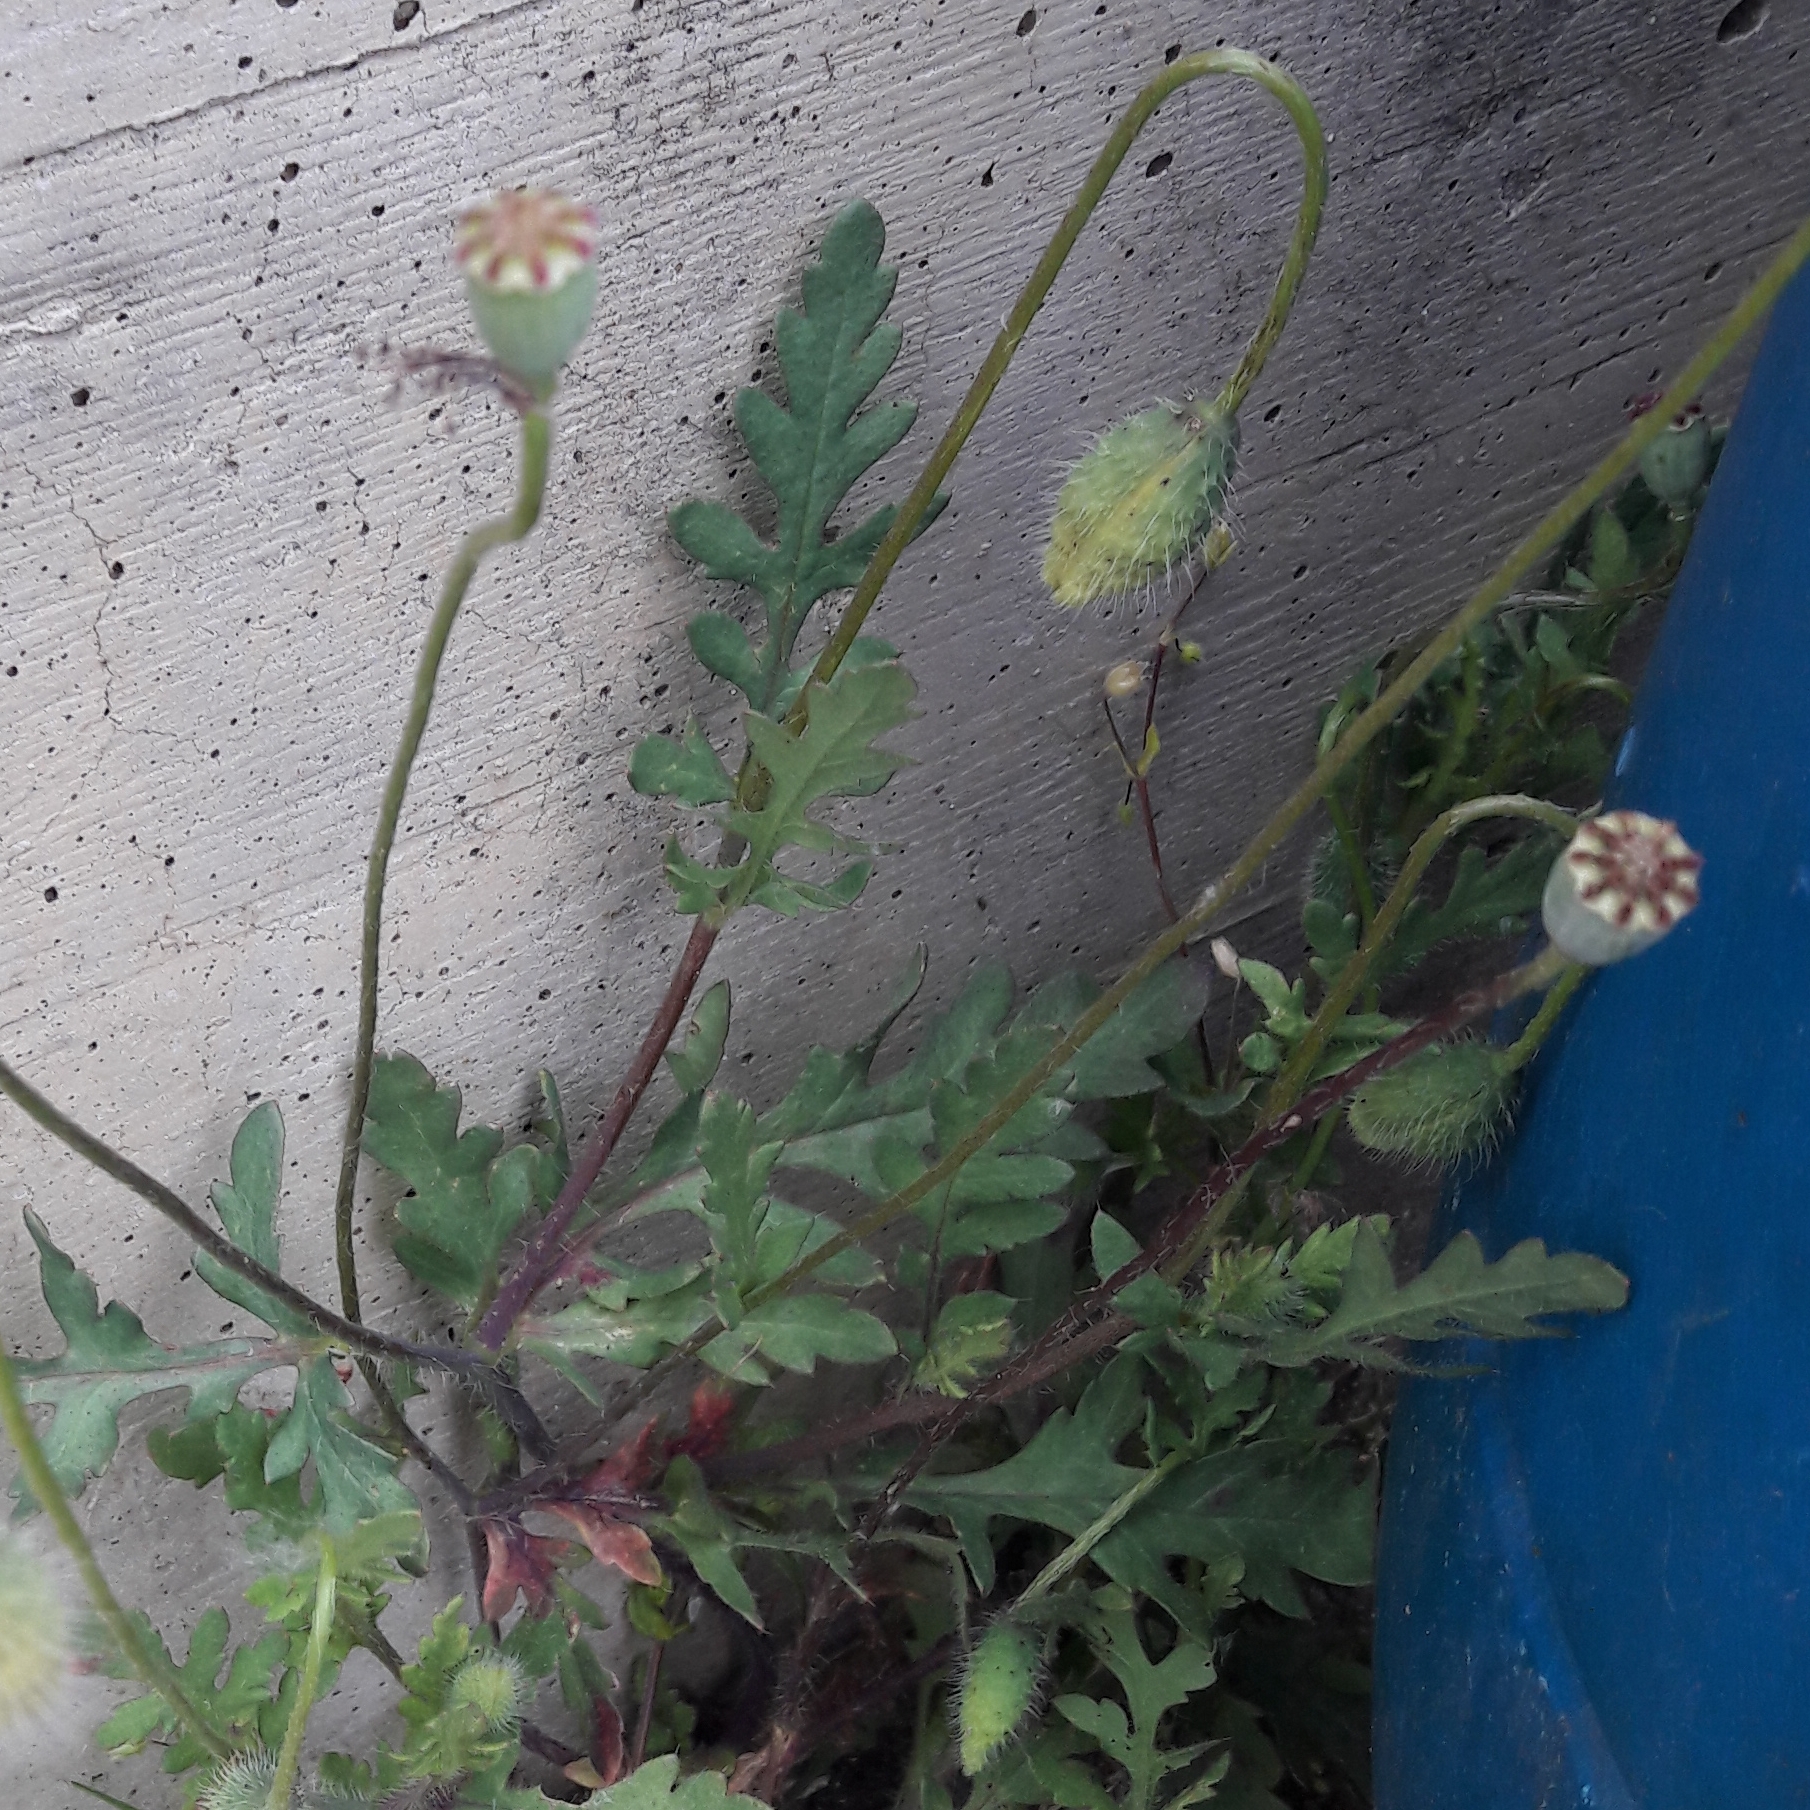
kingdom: Plantae
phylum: Tracheophyta
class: Magnoliopsida
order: Ranunculales
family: Papaveraceae
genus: Papaver
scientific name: Papaver rhoeas
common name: Corn poppy
